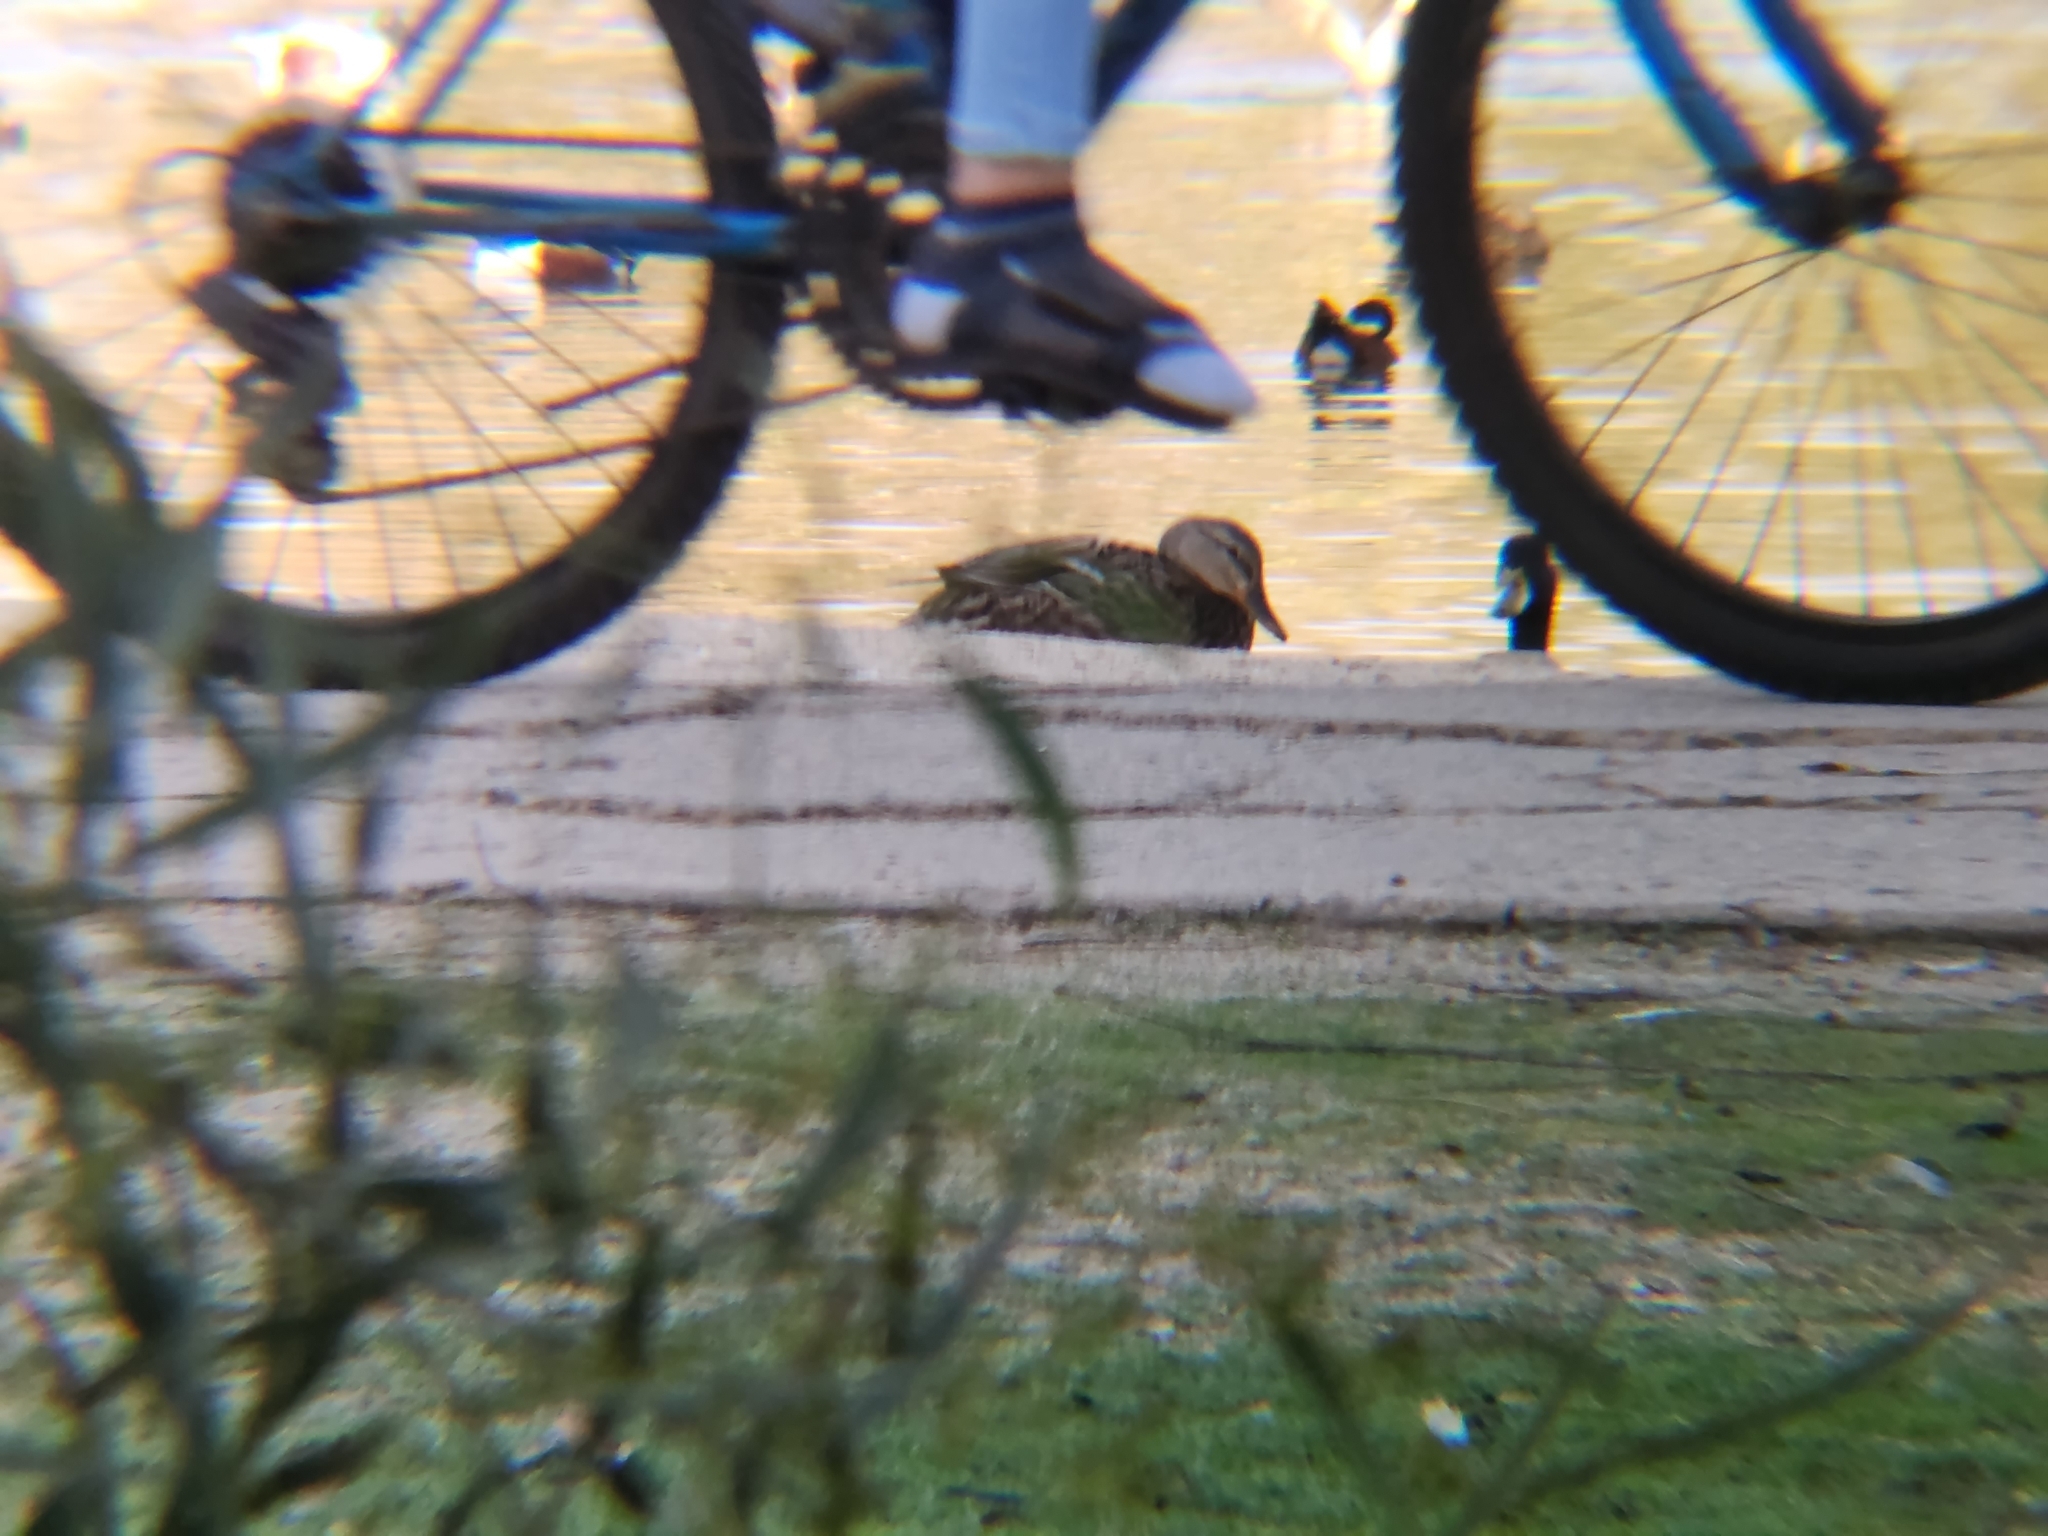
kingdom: Animalia
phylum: Chordata
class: Aves
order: Anseriformes
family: Anatidae
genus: Anas
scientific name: Anas platyrhynchos
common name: Mallard
